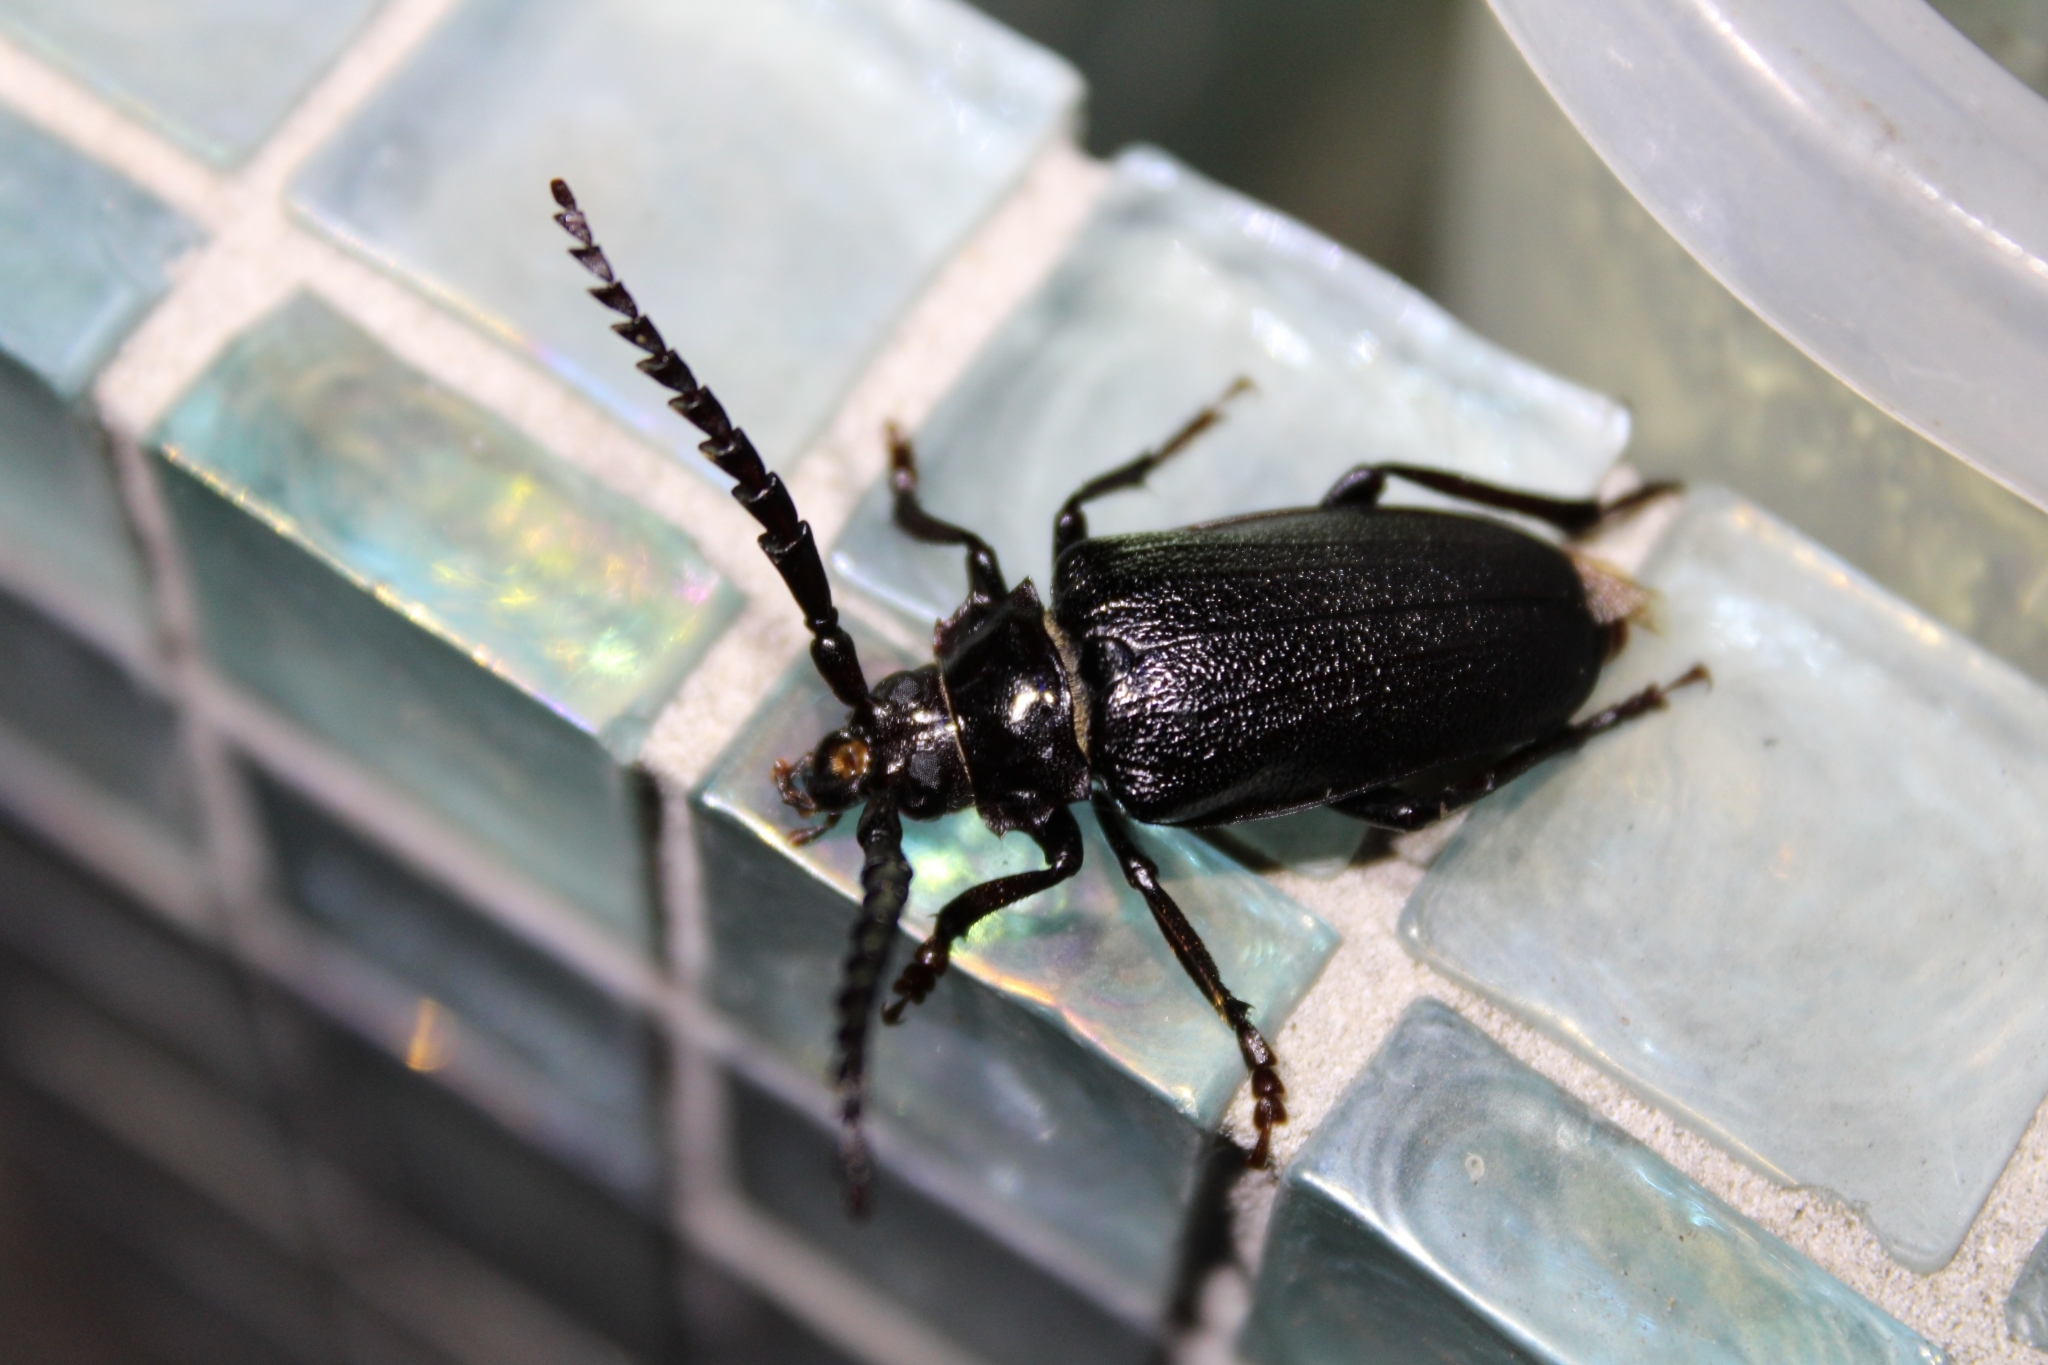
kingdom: Animalia
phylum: Arthropoda
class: Insecta
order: Coleoptera
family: Cerambycidae
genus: Prionus
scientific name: Prionus laticollis
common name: Broad necked prionus
